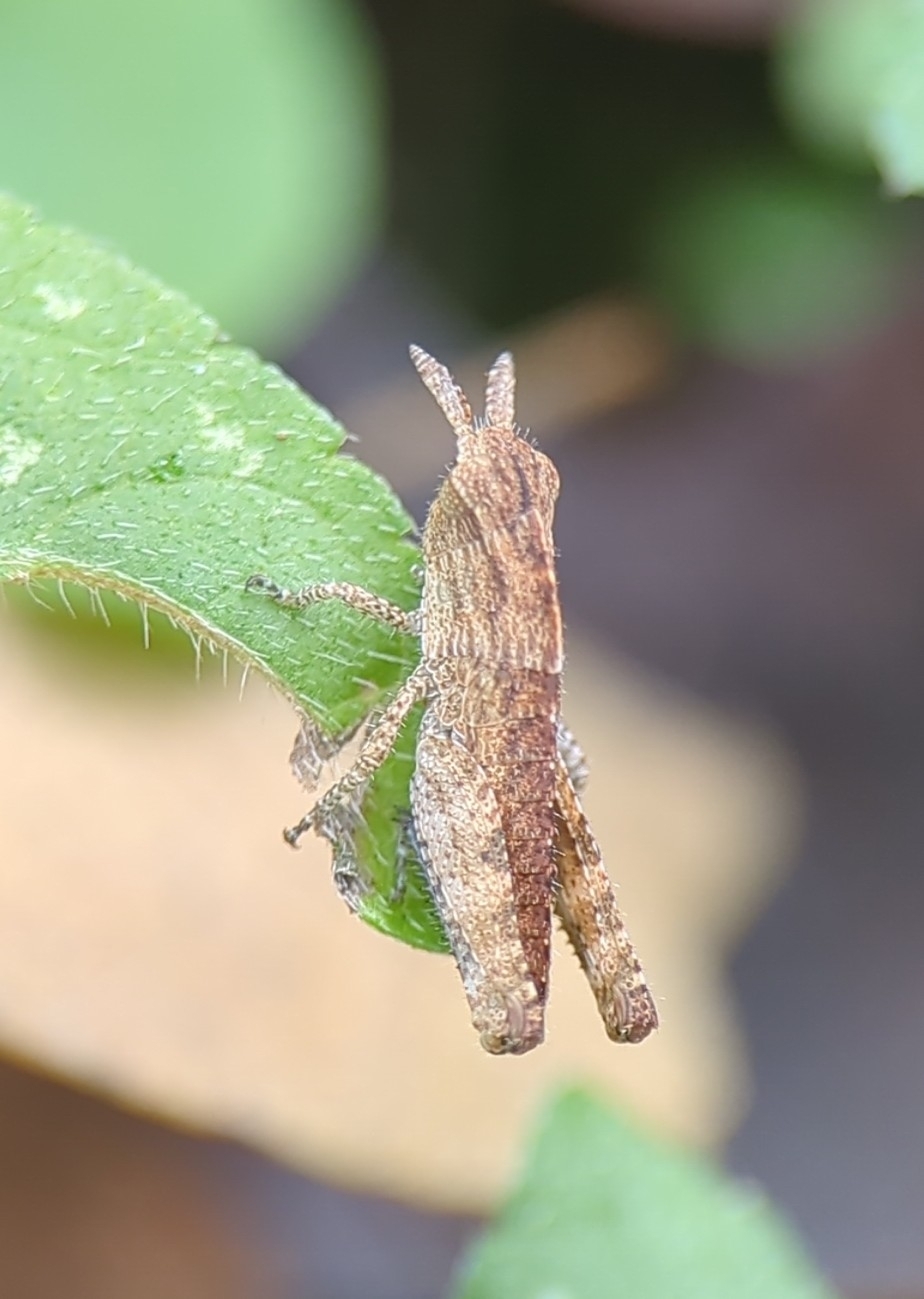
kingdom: Animalia
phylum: Arthropoda
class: Insecta
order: Orthoptera
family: Acrididae
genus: Chortophaga
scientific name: Chortophaga viridifasciata
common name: Green-striped grasshopper
